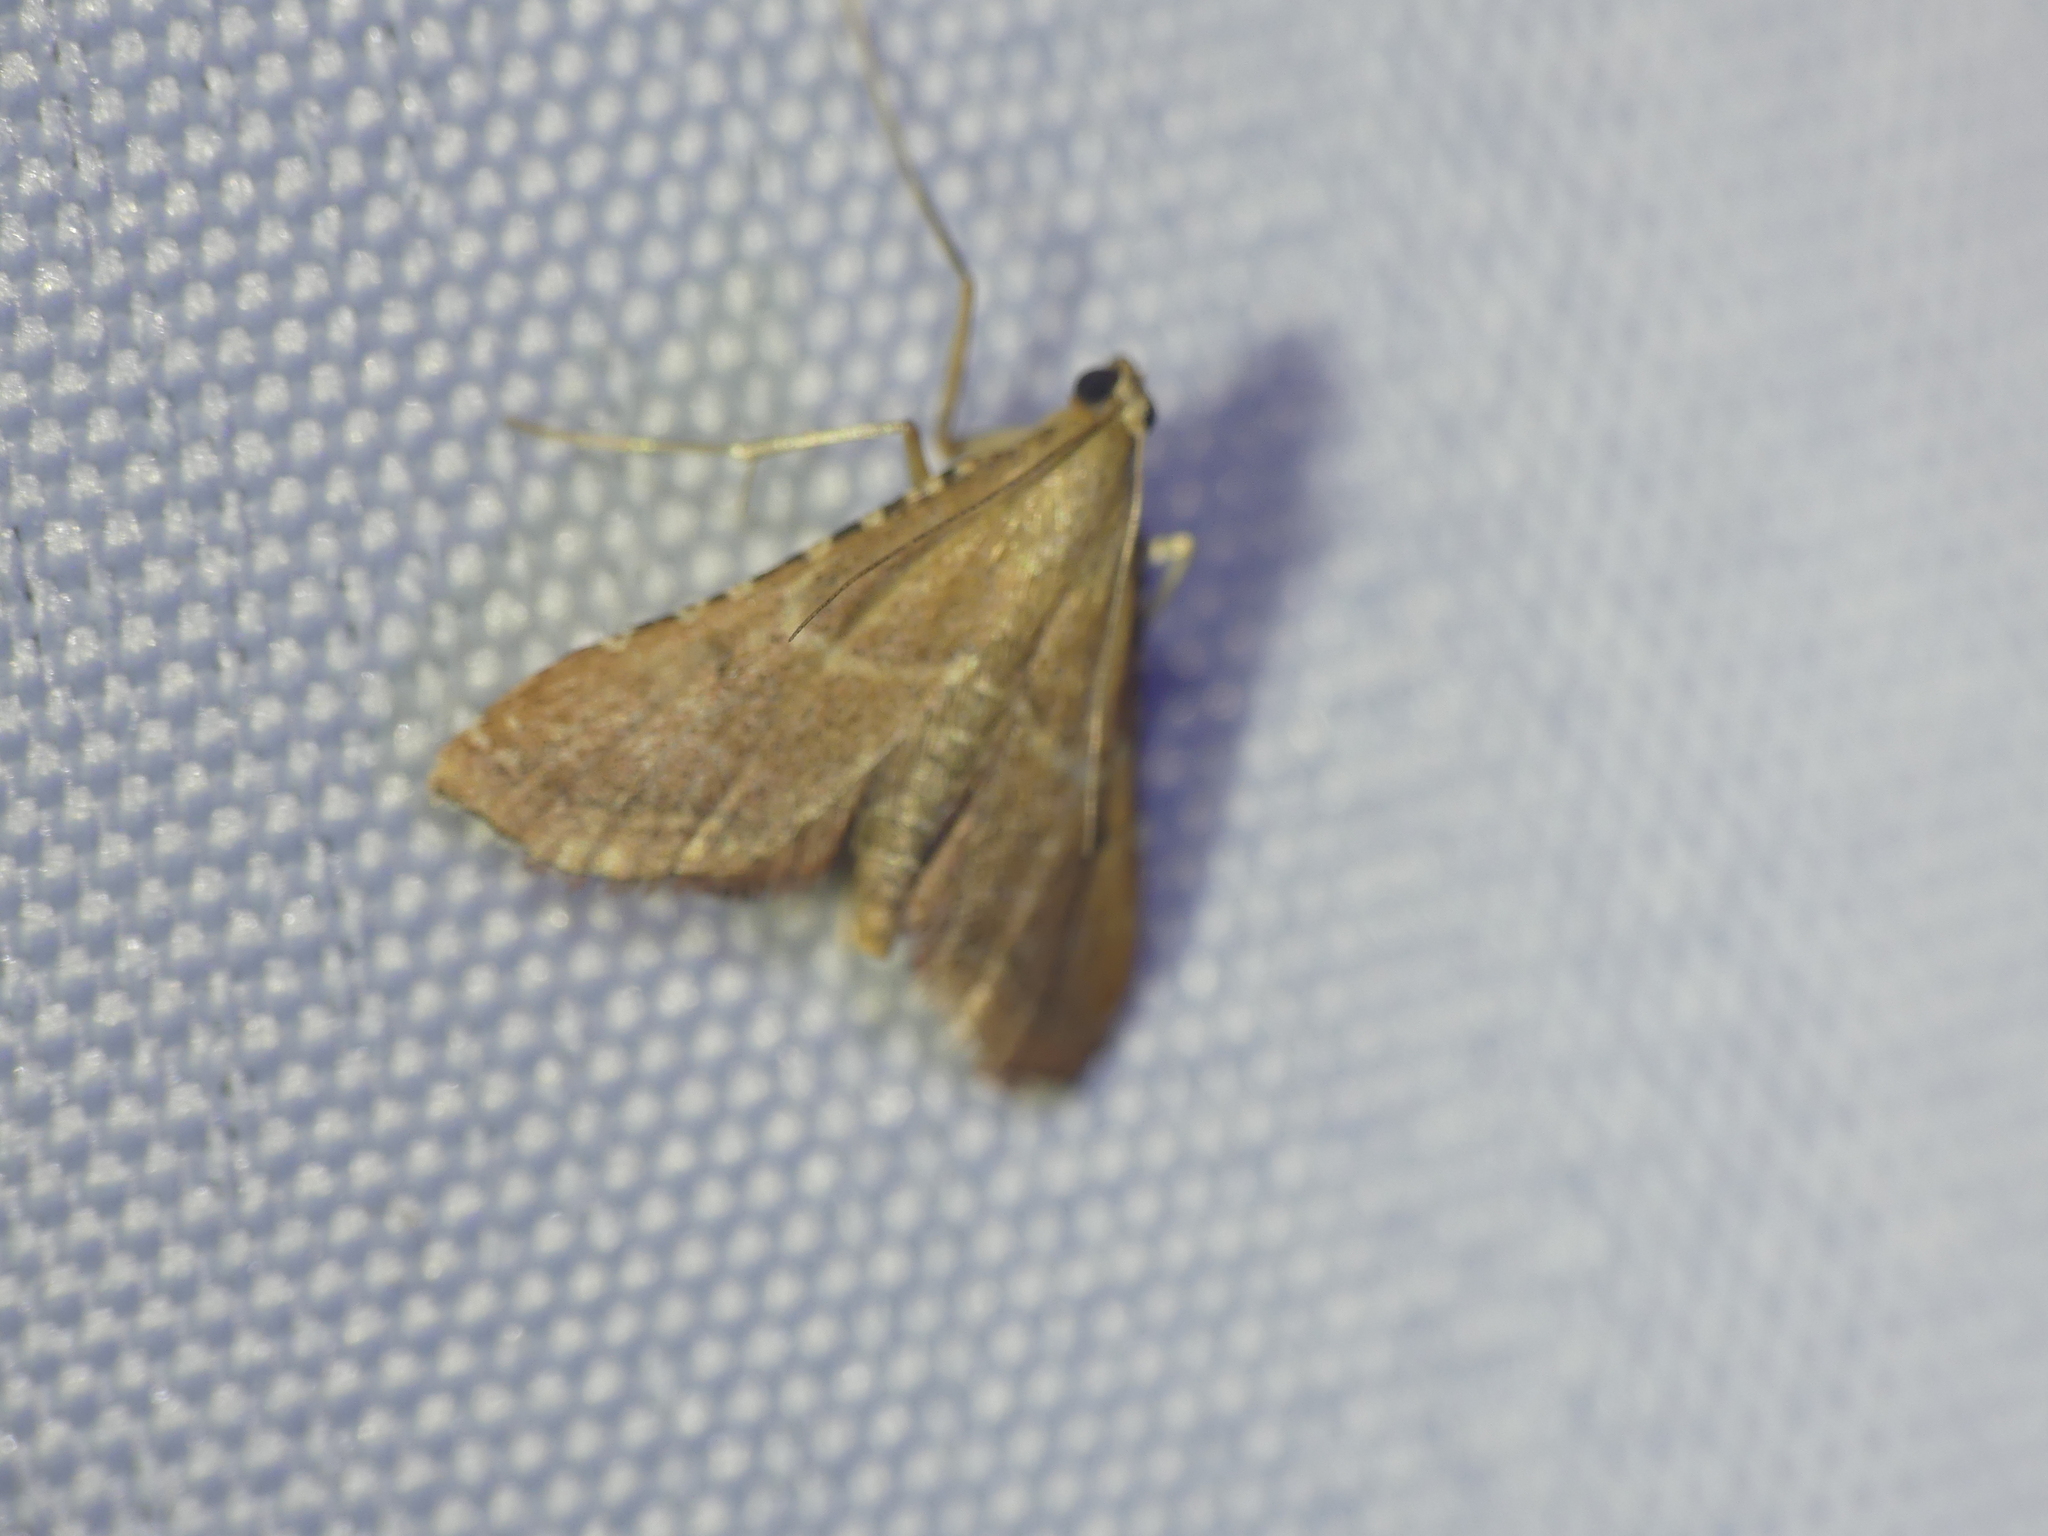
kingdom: Animalia
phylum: Arthropoda
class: Insecta
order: Lepidoptera
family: Pyralidae
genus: Endotricha
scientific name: Endotricha flammealis
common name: Rosy tabby
